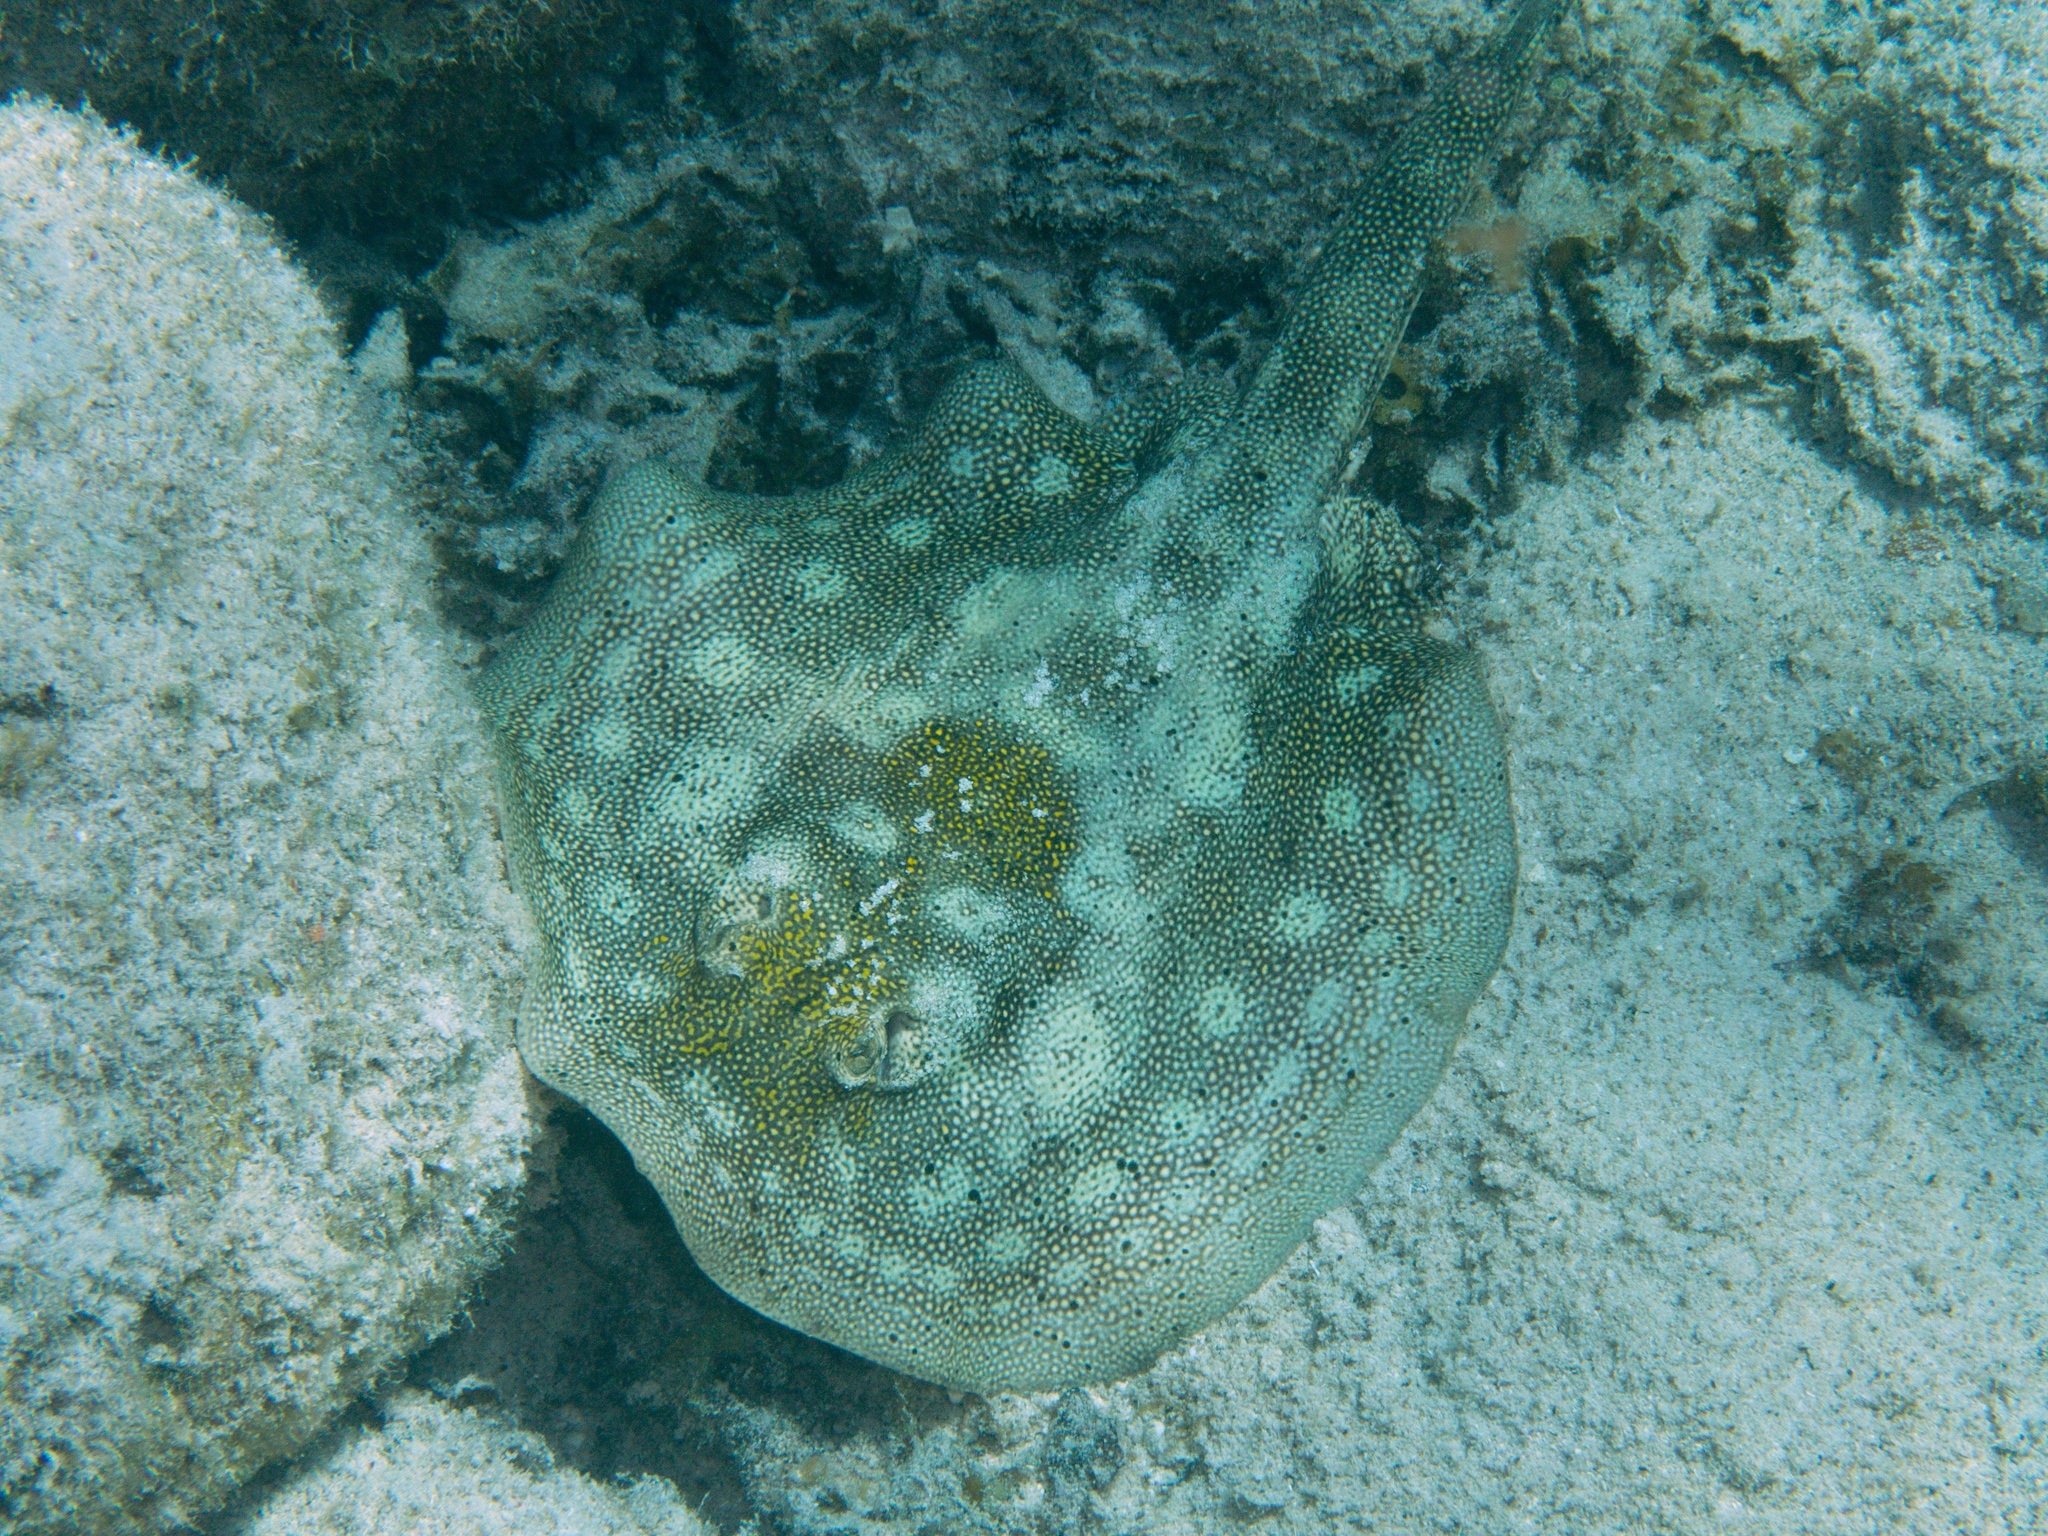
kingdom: Animalia
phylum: Chordata
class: Elasmobranchii
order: Myliobatiformes
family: Urotrygonidae
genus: Urobatis
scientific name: Urobatis jamaicensis
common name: Yellow stingray
